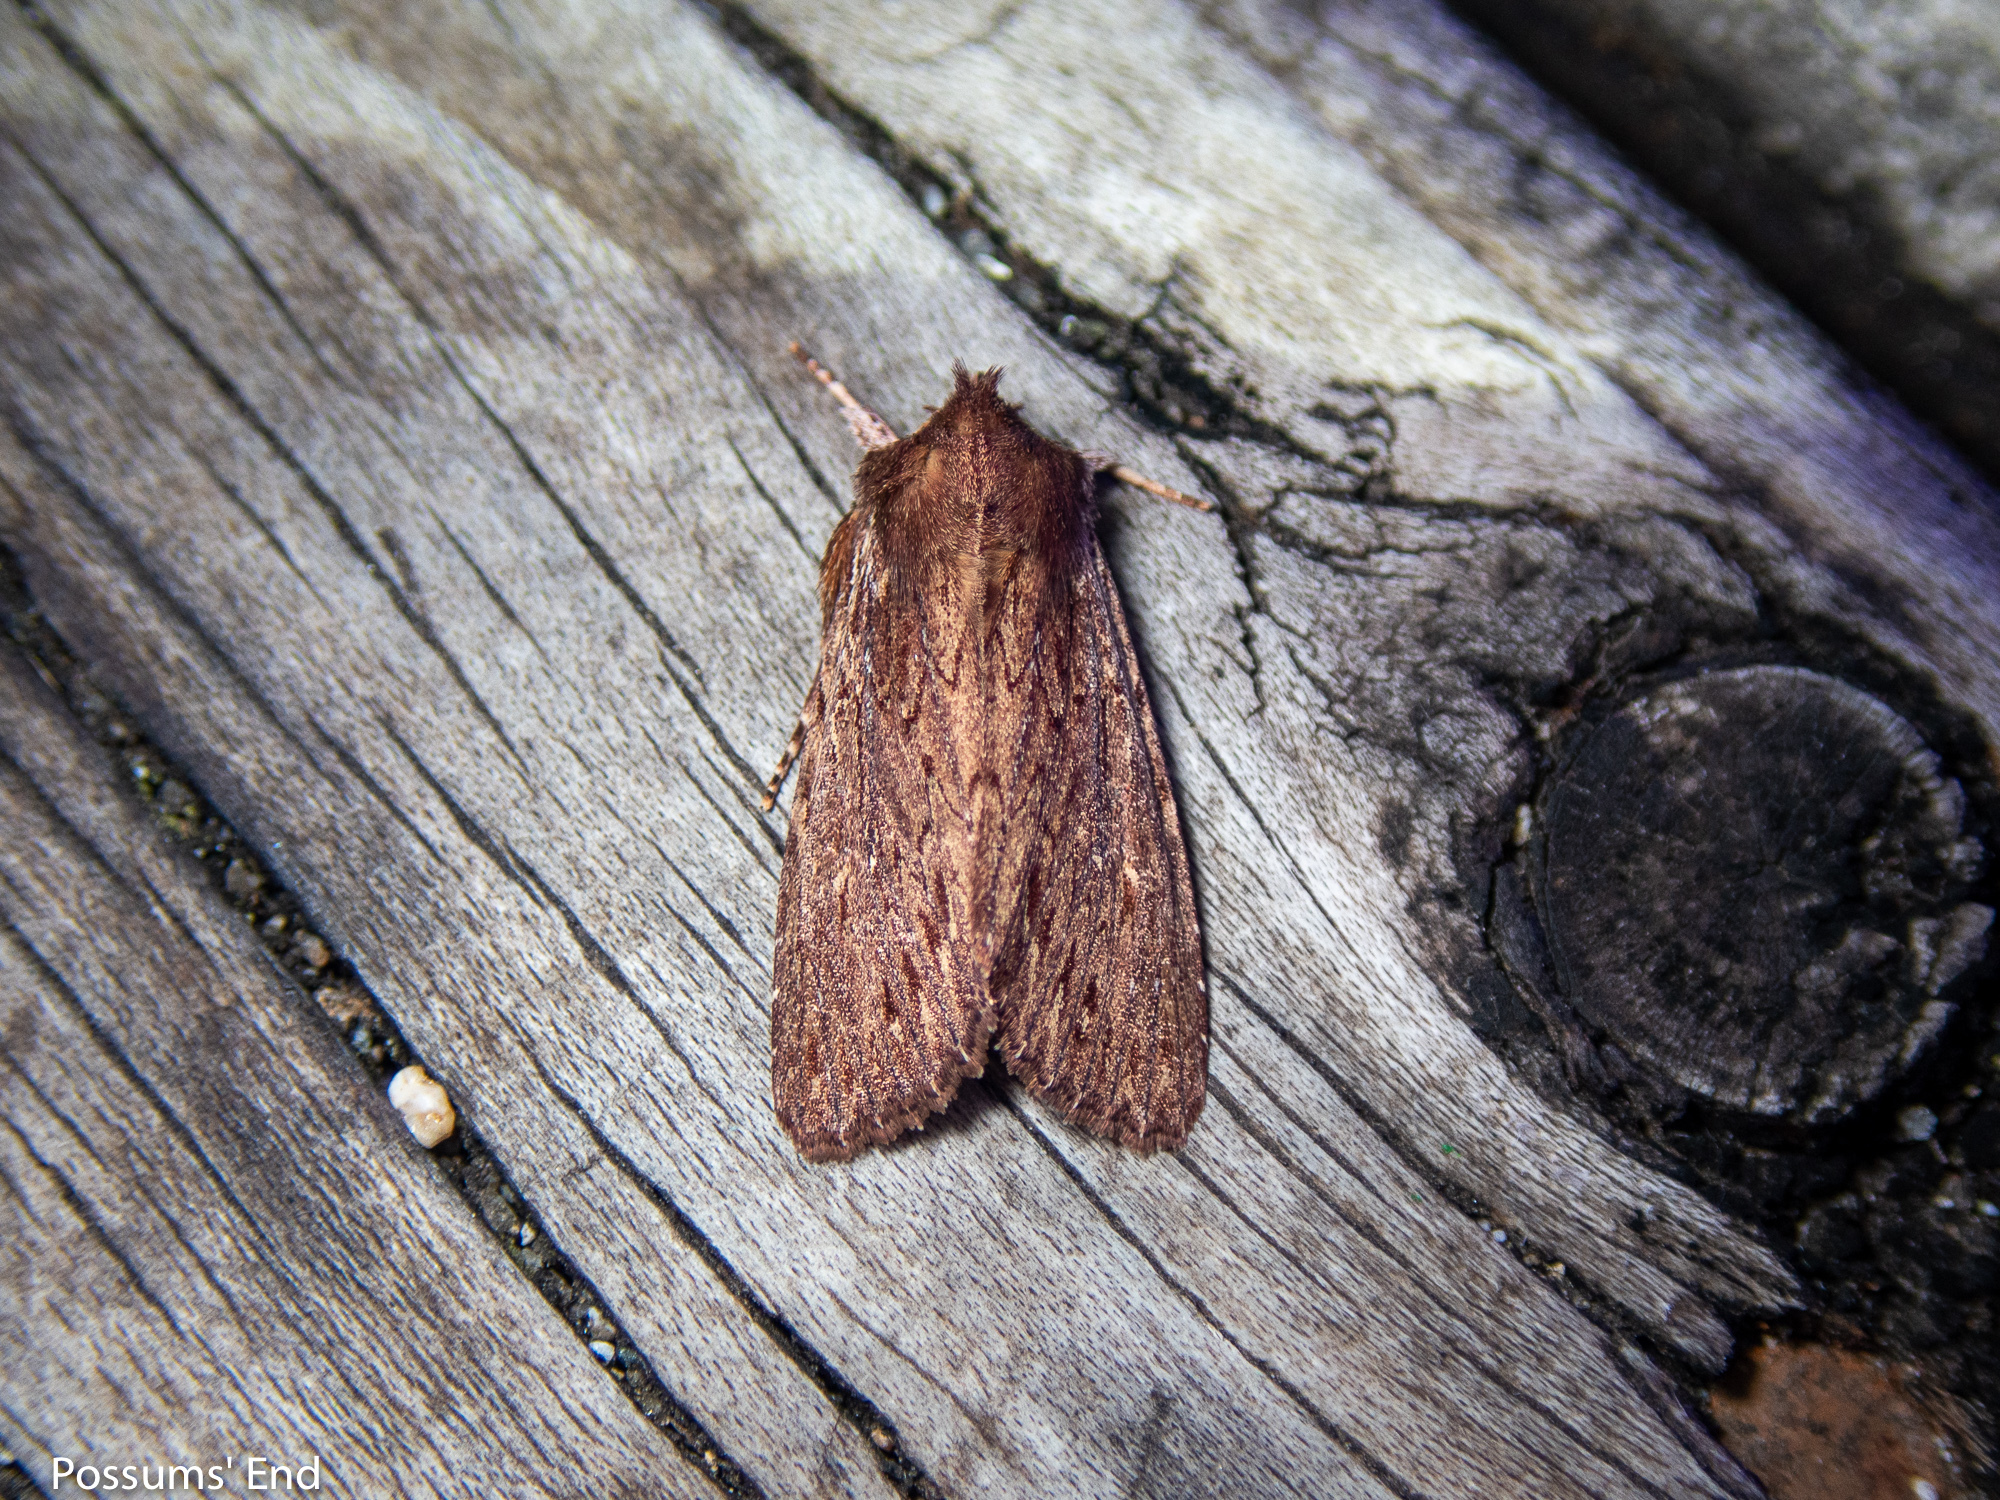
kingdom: Animalia
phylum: Arthropoda
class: Insecta
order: Lepidoptera
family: Noctuidae
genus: Ichneutica
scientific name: Ichneutica
